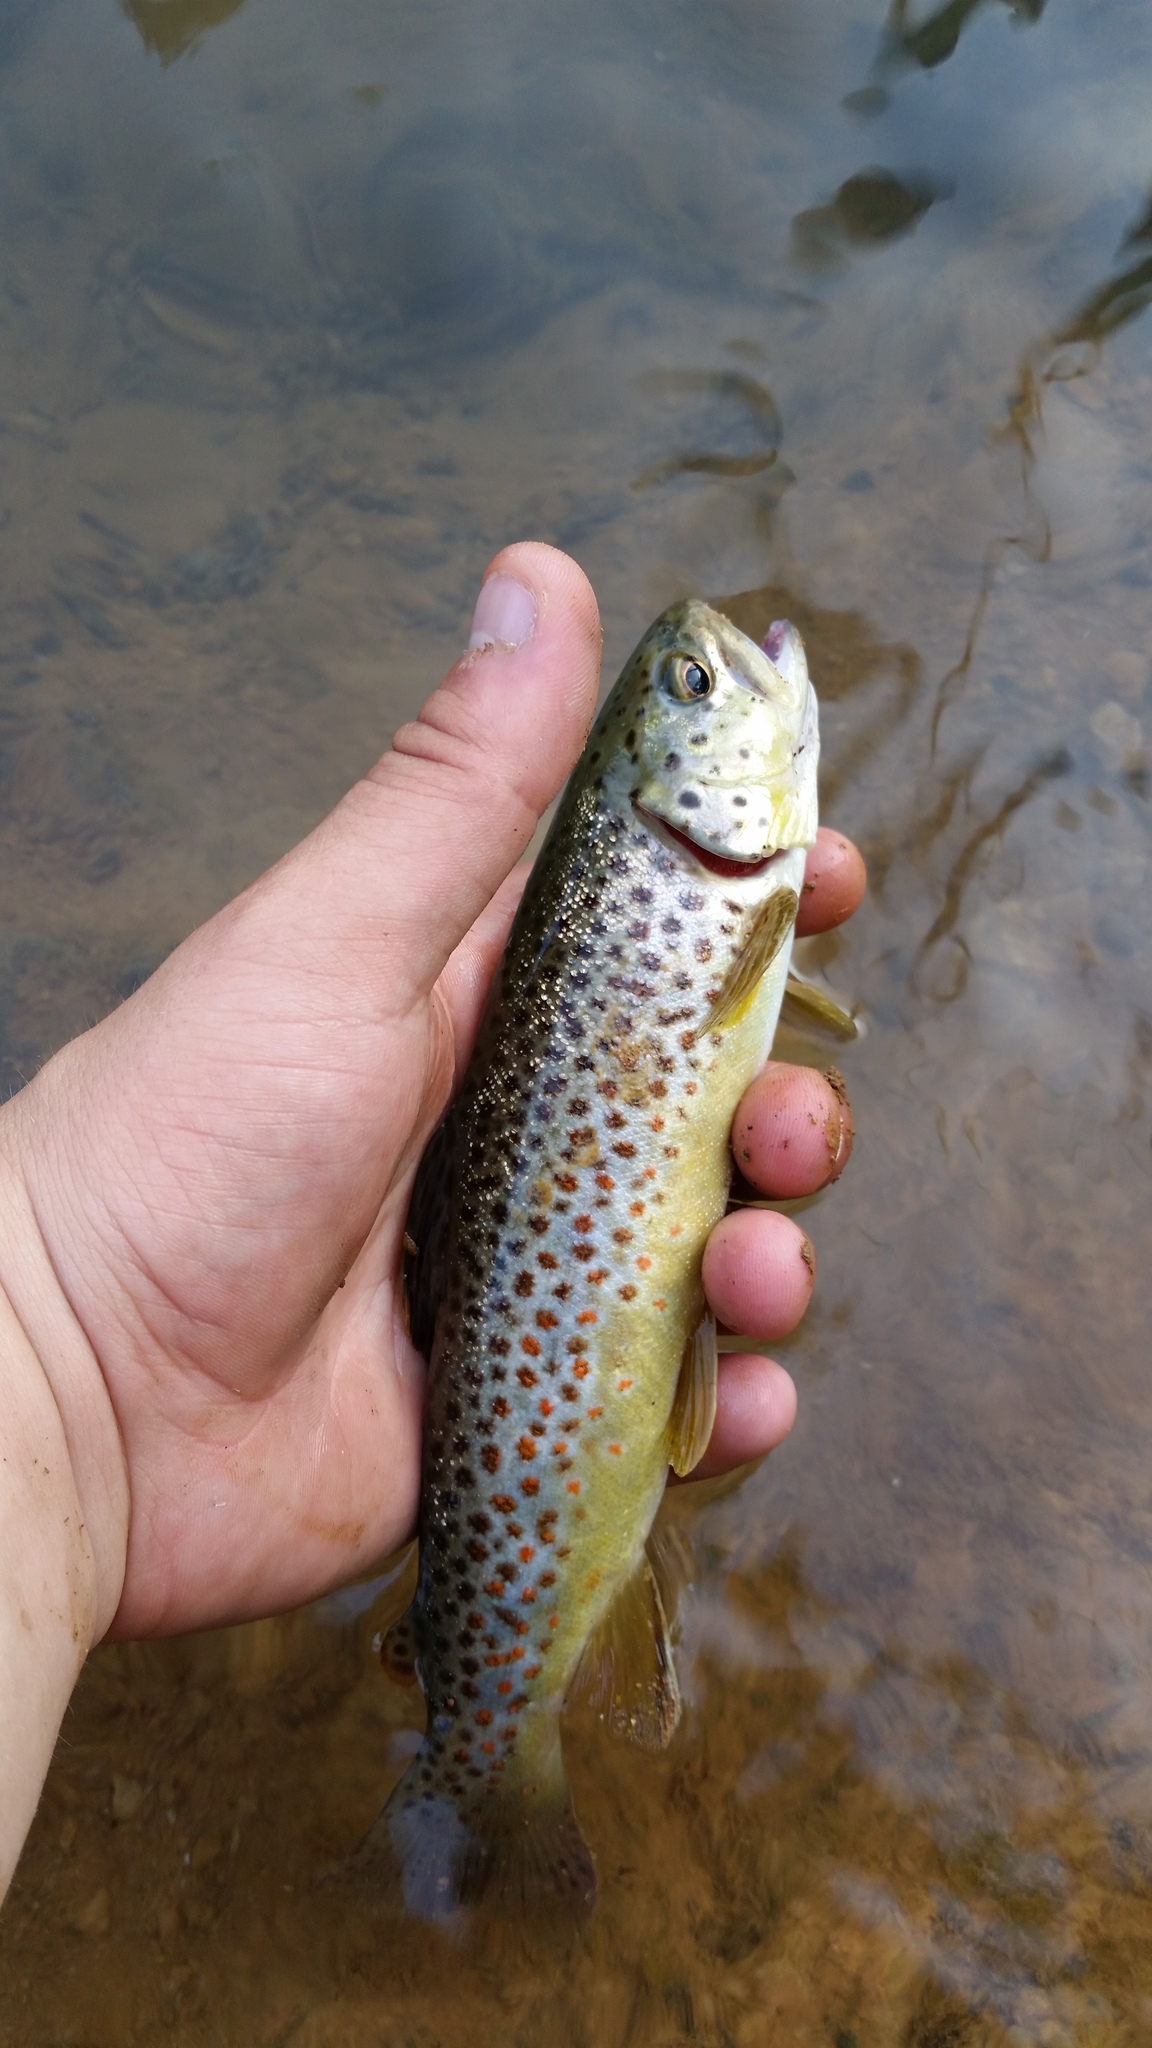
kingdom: Animalia
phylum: Chordata
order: Salmoniformes
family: Salmonidae
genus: Salmo
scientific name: Salmo trutta
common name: Brown trout
